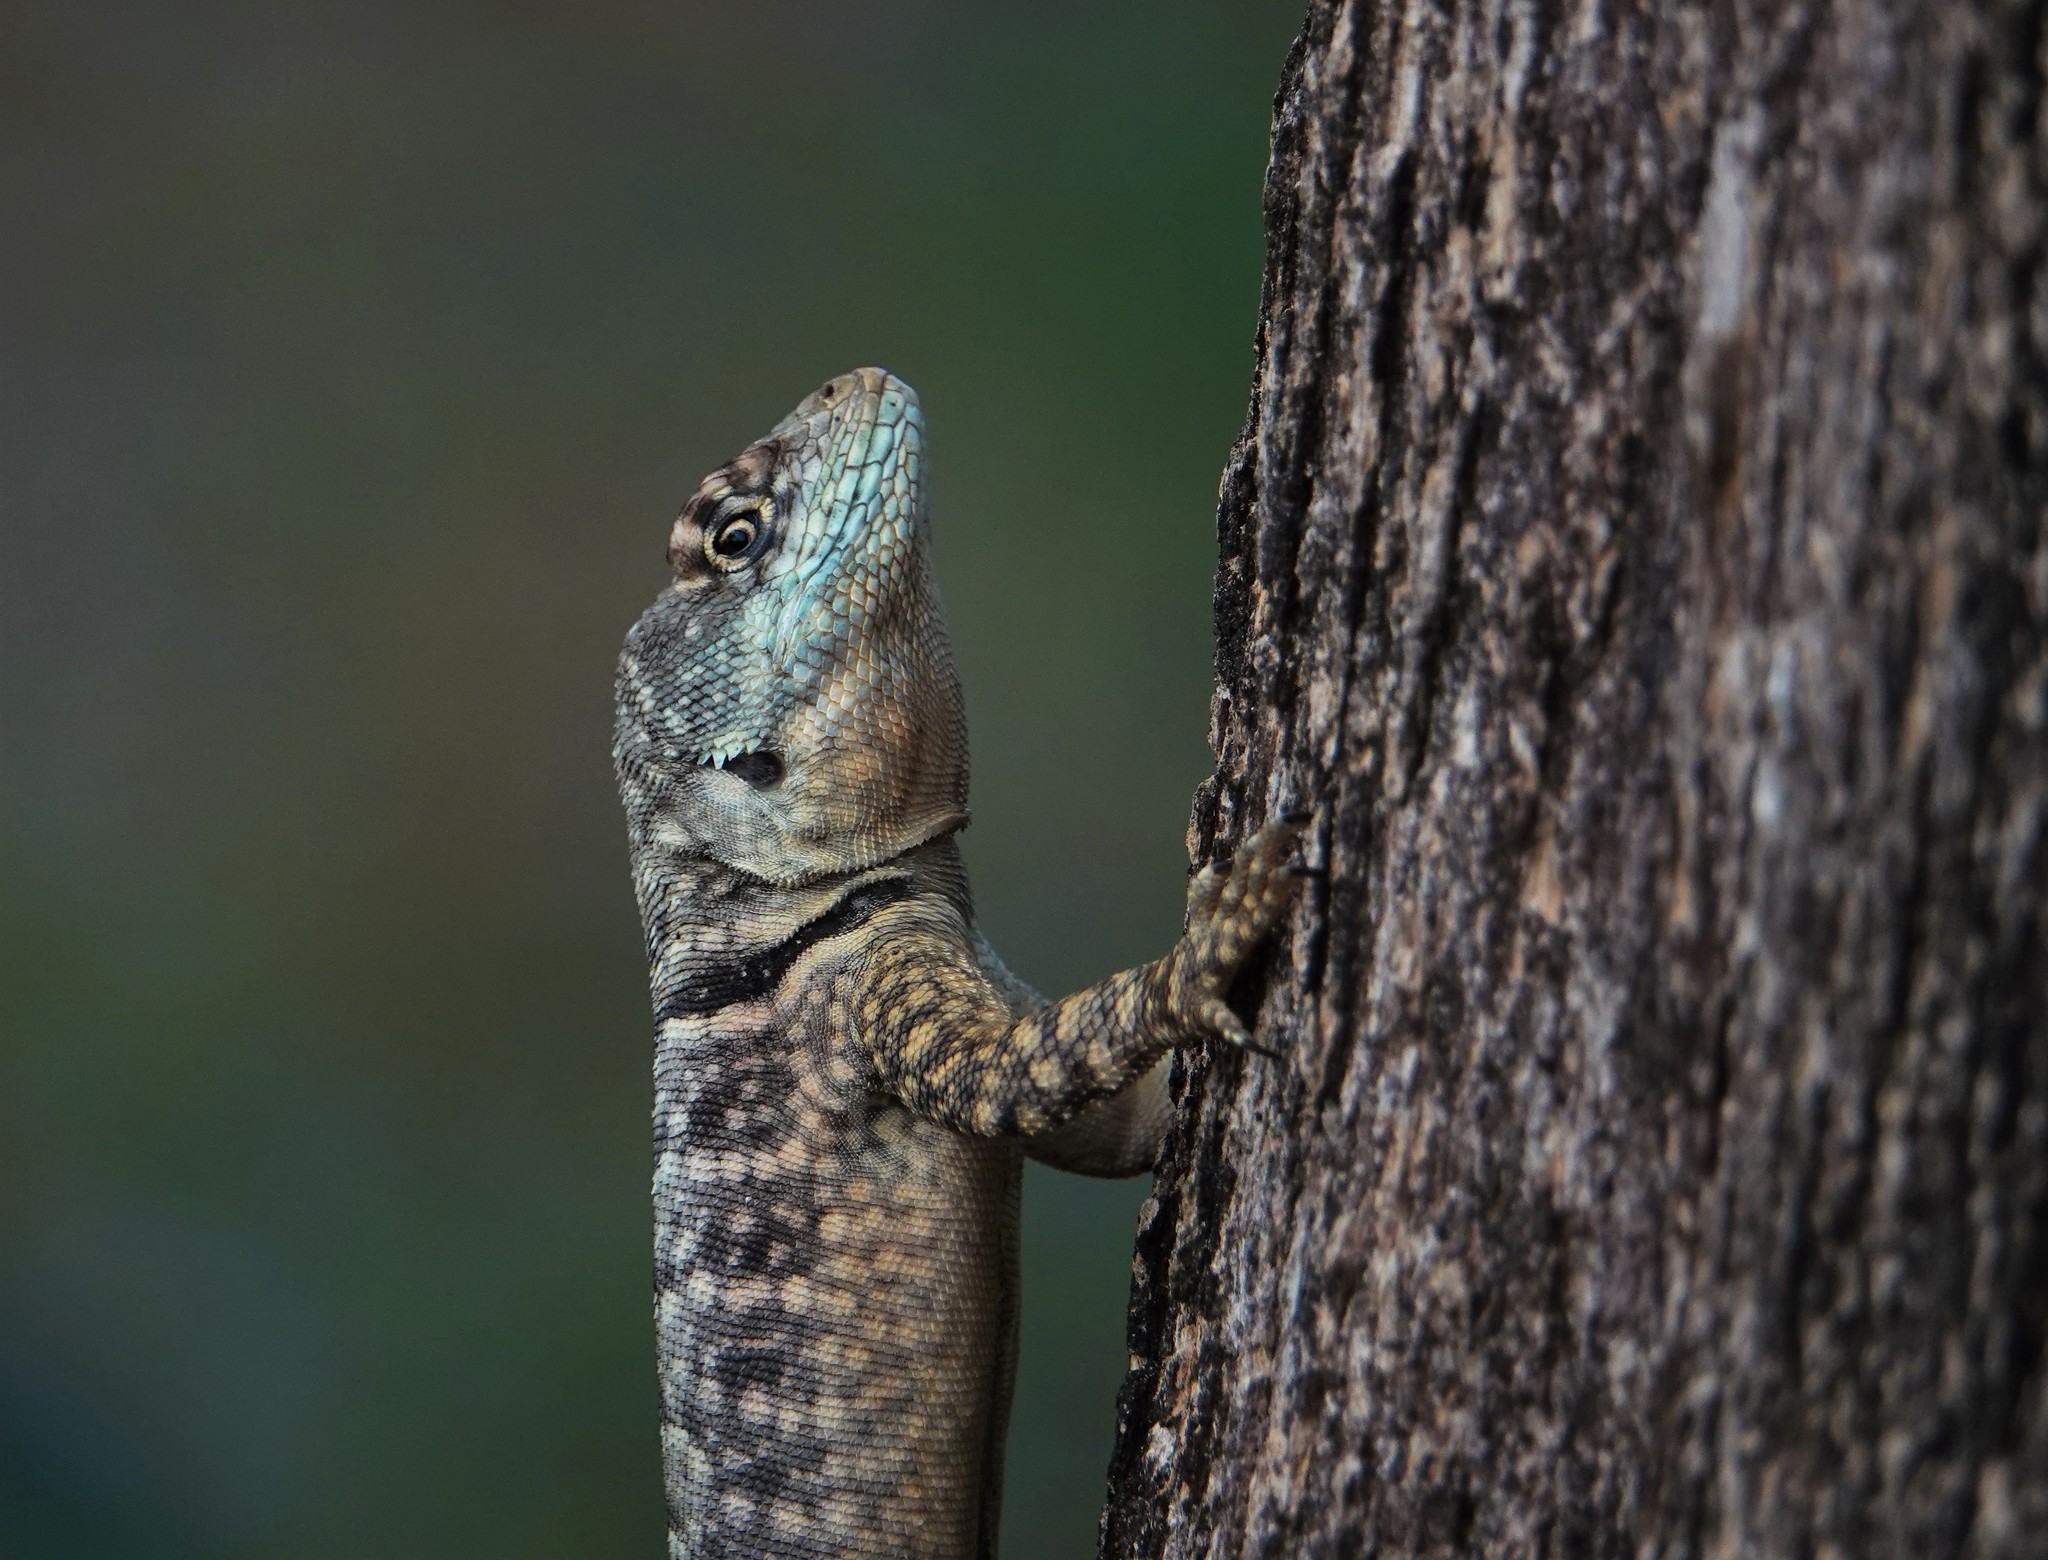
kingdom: Animalia
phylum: Chordata
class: Squamata
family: Tropiduridae
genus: Tropidurus
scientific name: Tropidurus torquatus
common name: Amazon lava lizard
